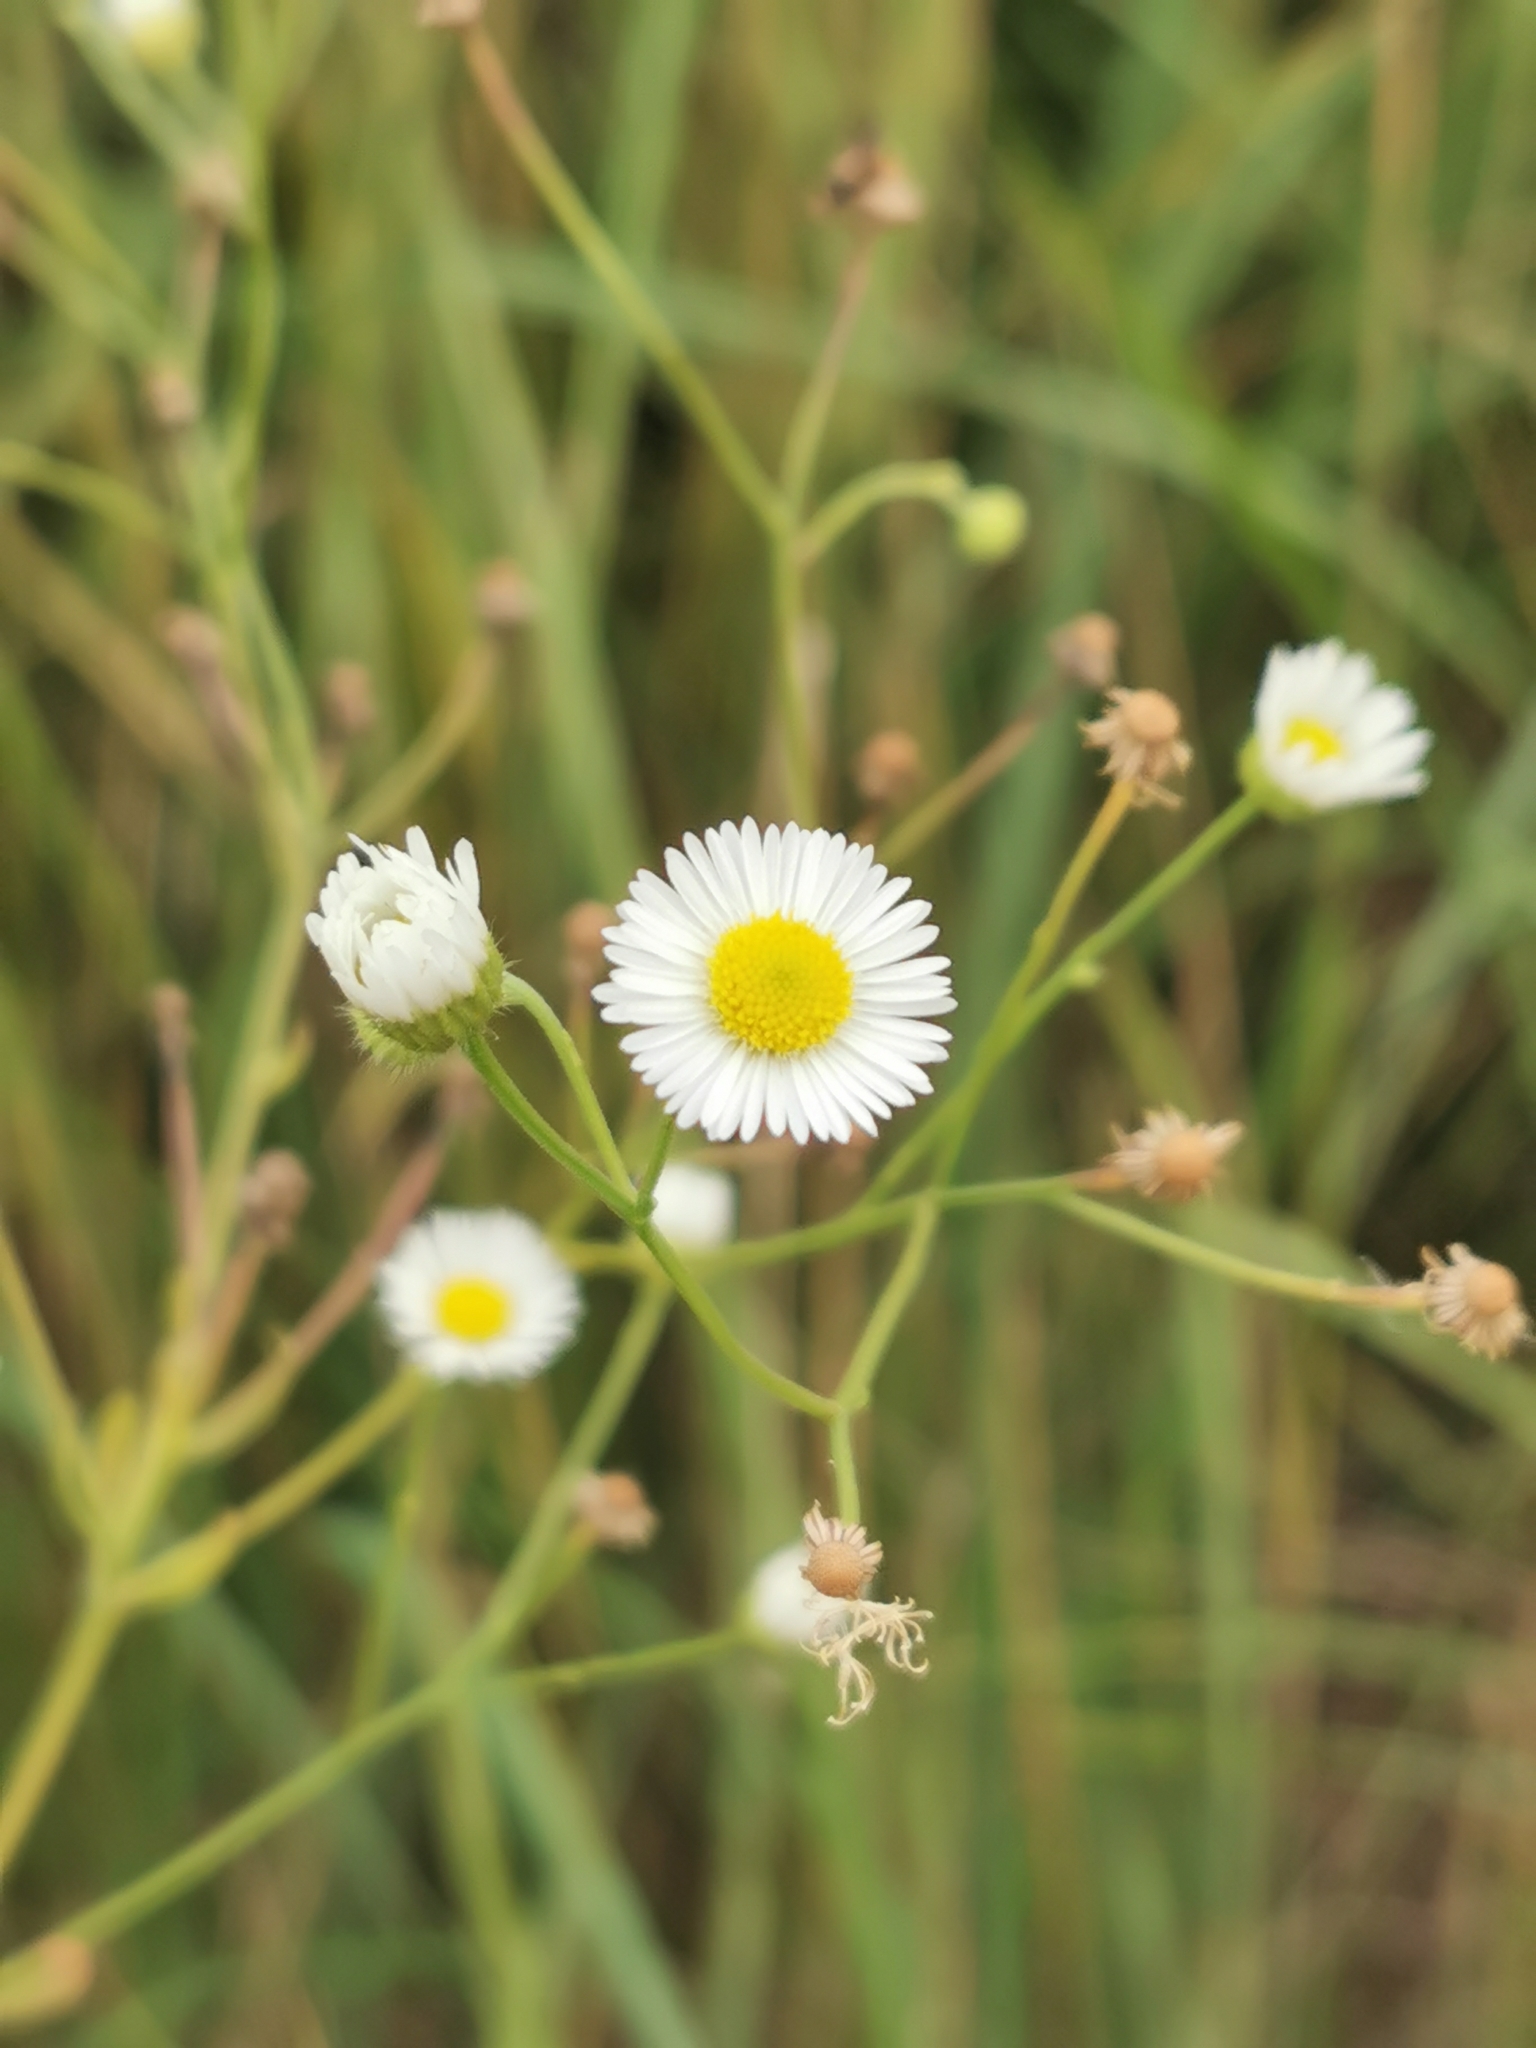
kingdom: Plantae
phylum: Tracheophyta
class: Magnoliopsida
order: Asterales
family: Asteraceae
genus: Erigeron
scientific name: Erigeron strigosus
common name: Common eastern fleabane
